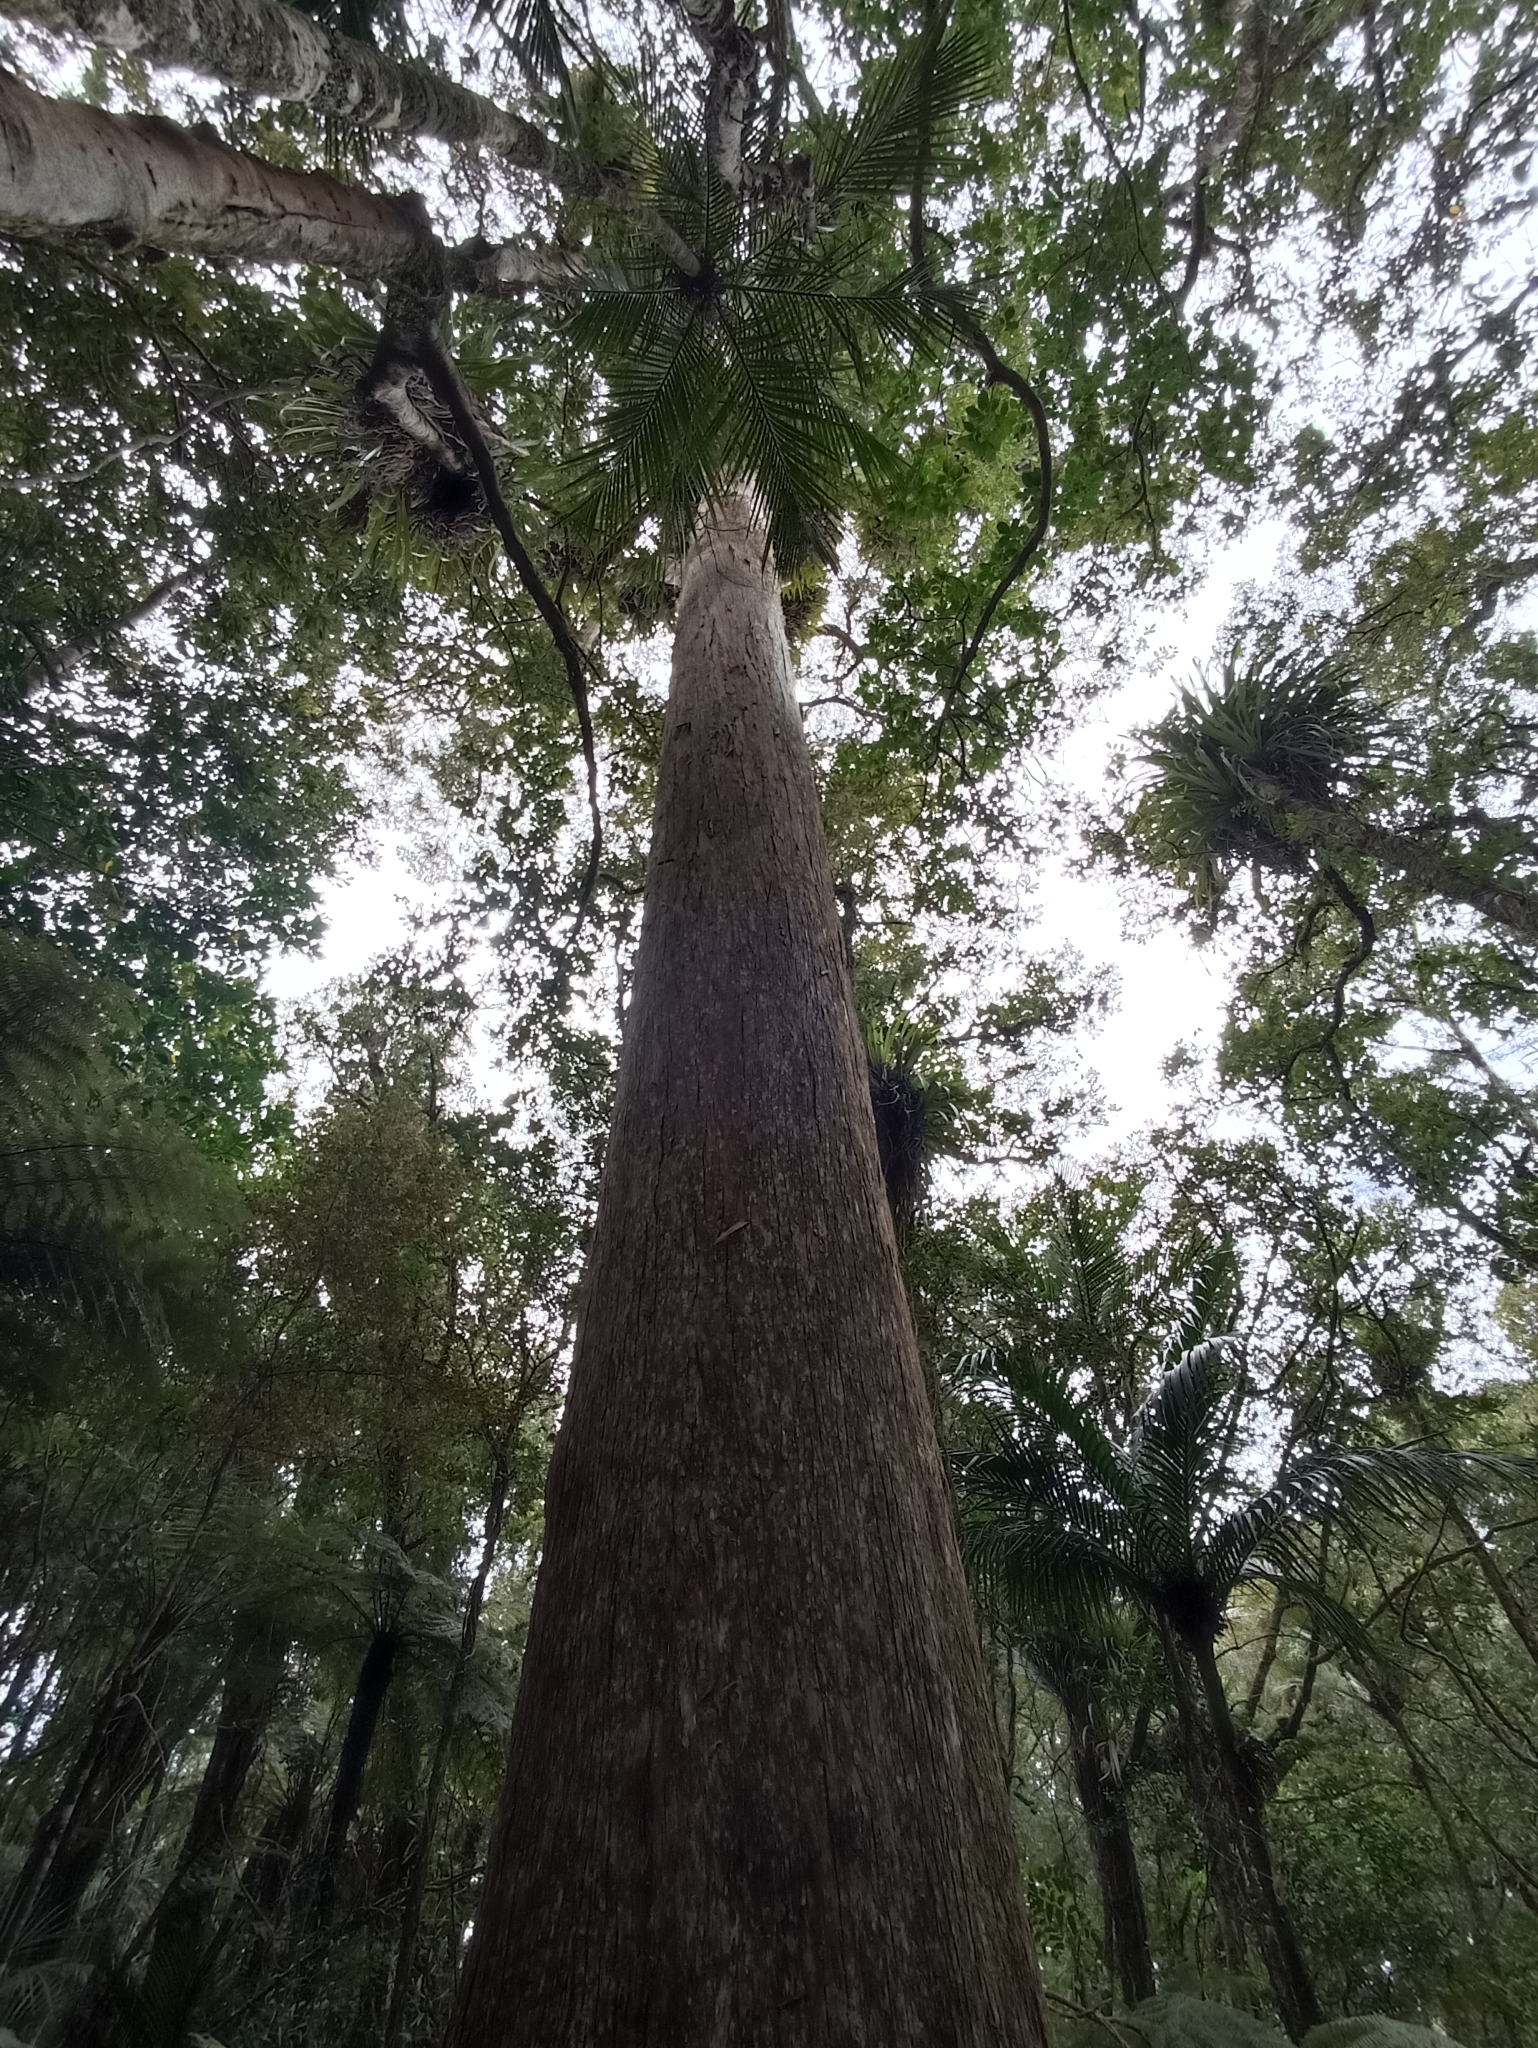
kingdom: Plantae
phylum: Tracheophyta
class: Pinopsida
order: Pinales
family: Podocarpaceae
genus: Podocarpus
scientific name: Podocarpus totara
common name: Totara
